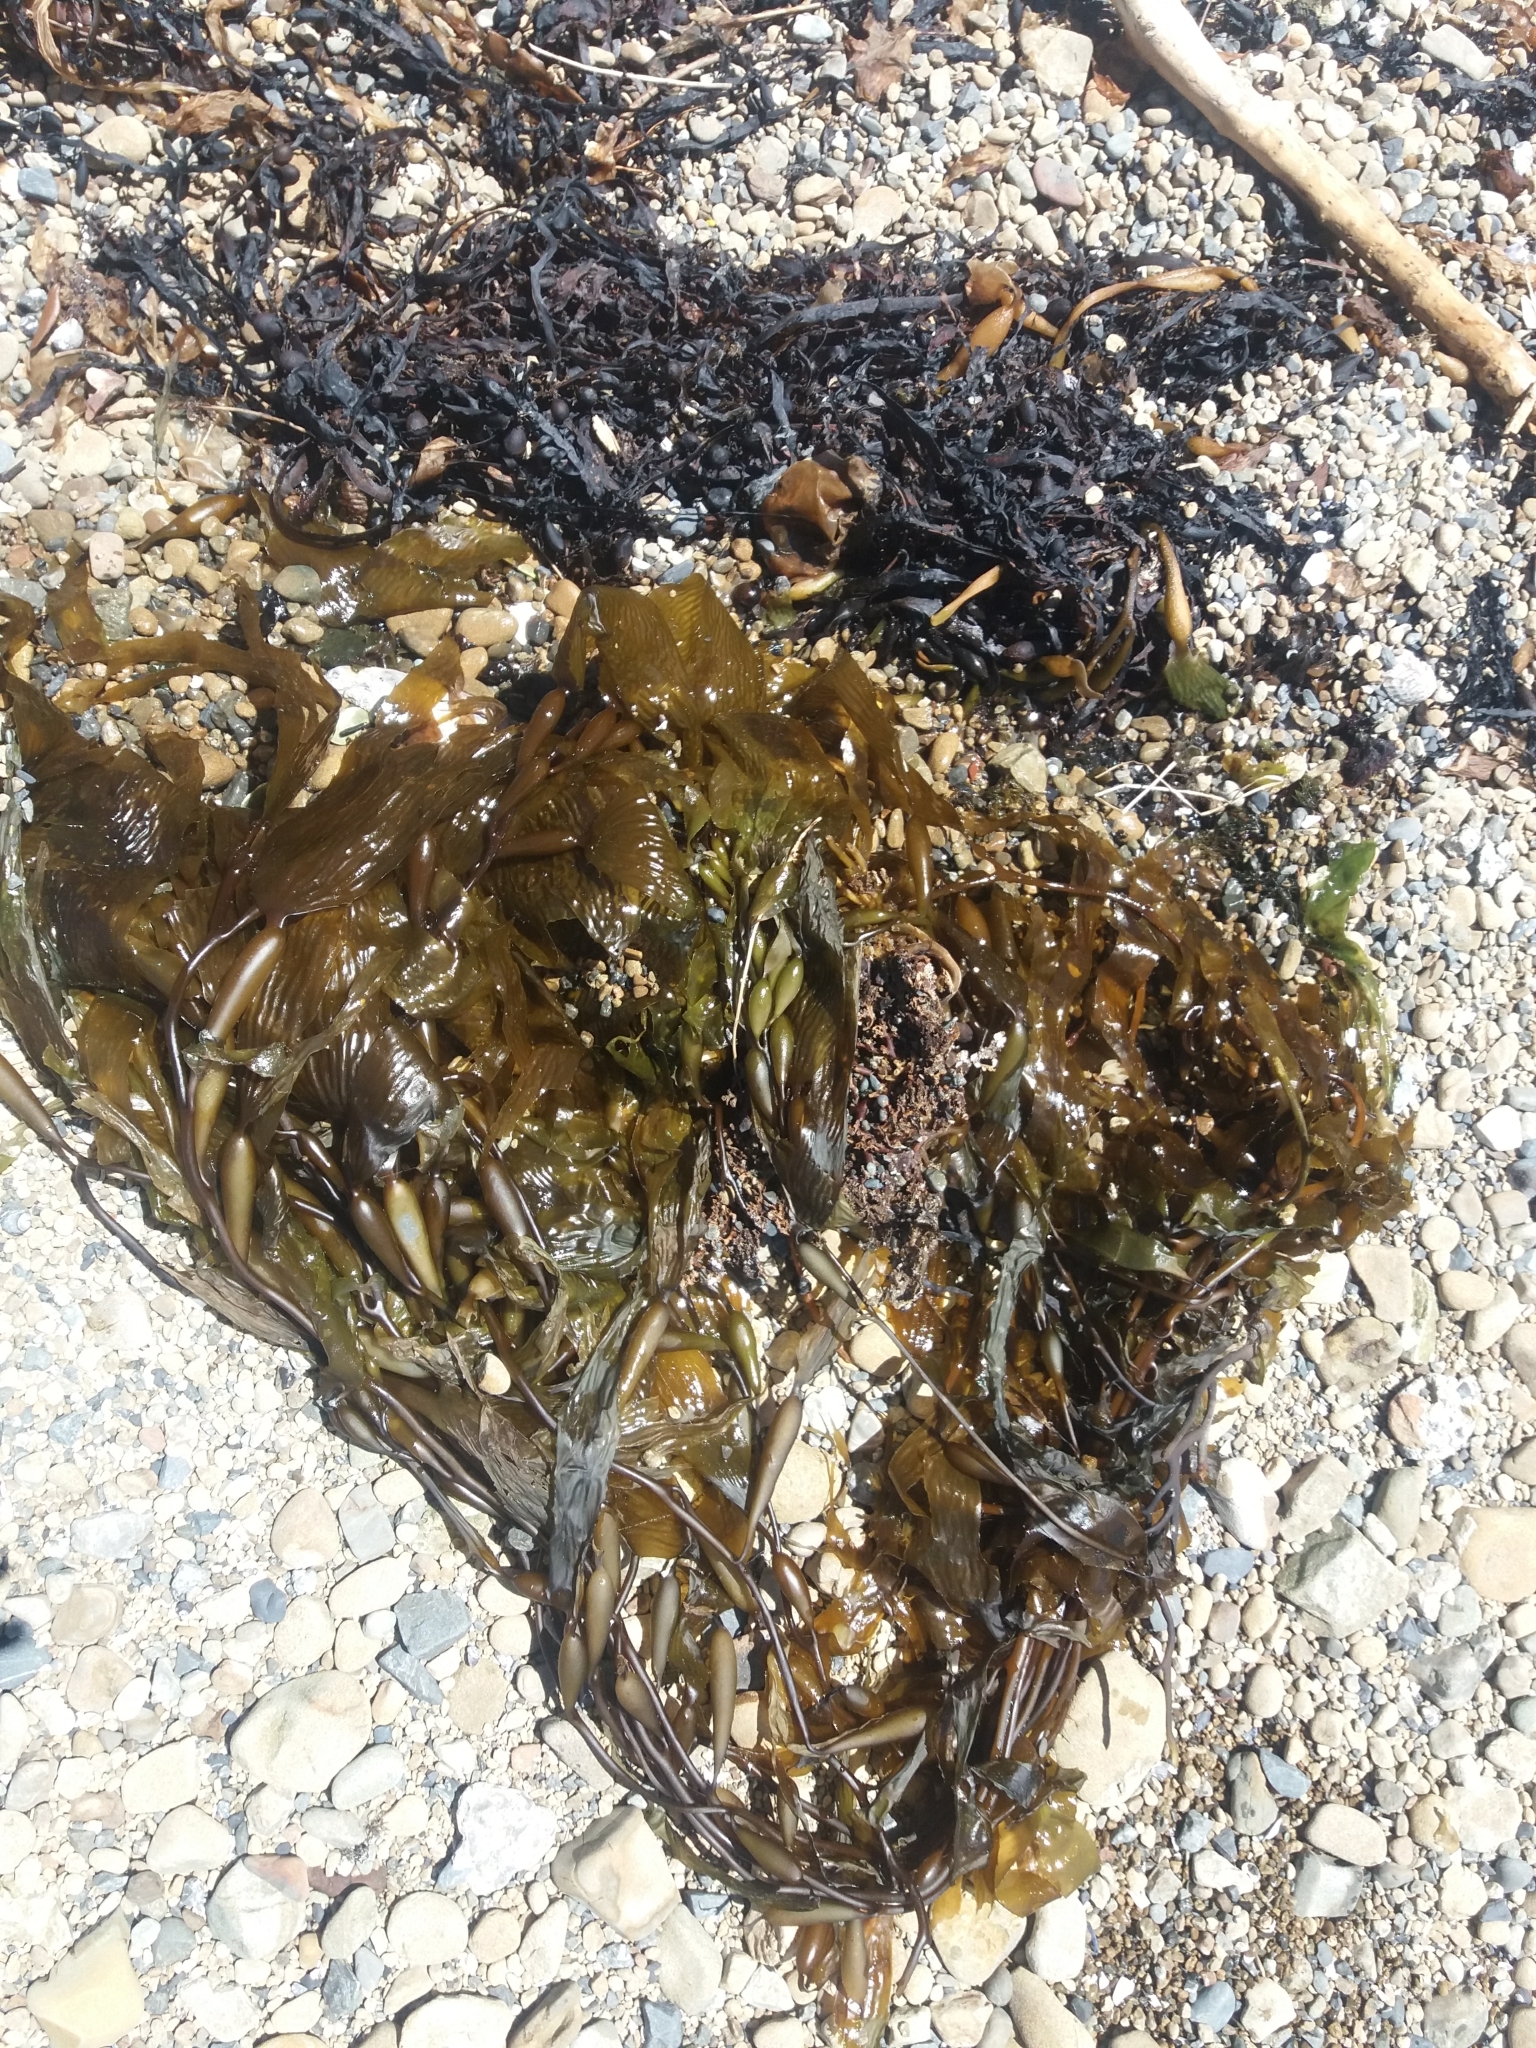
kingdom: Chromista
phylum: Ochrophyta
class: Phaeophyceae
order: Laminariales
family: Laminariaceae
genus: Macrocystis
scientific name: Macrocystis pyrifera
